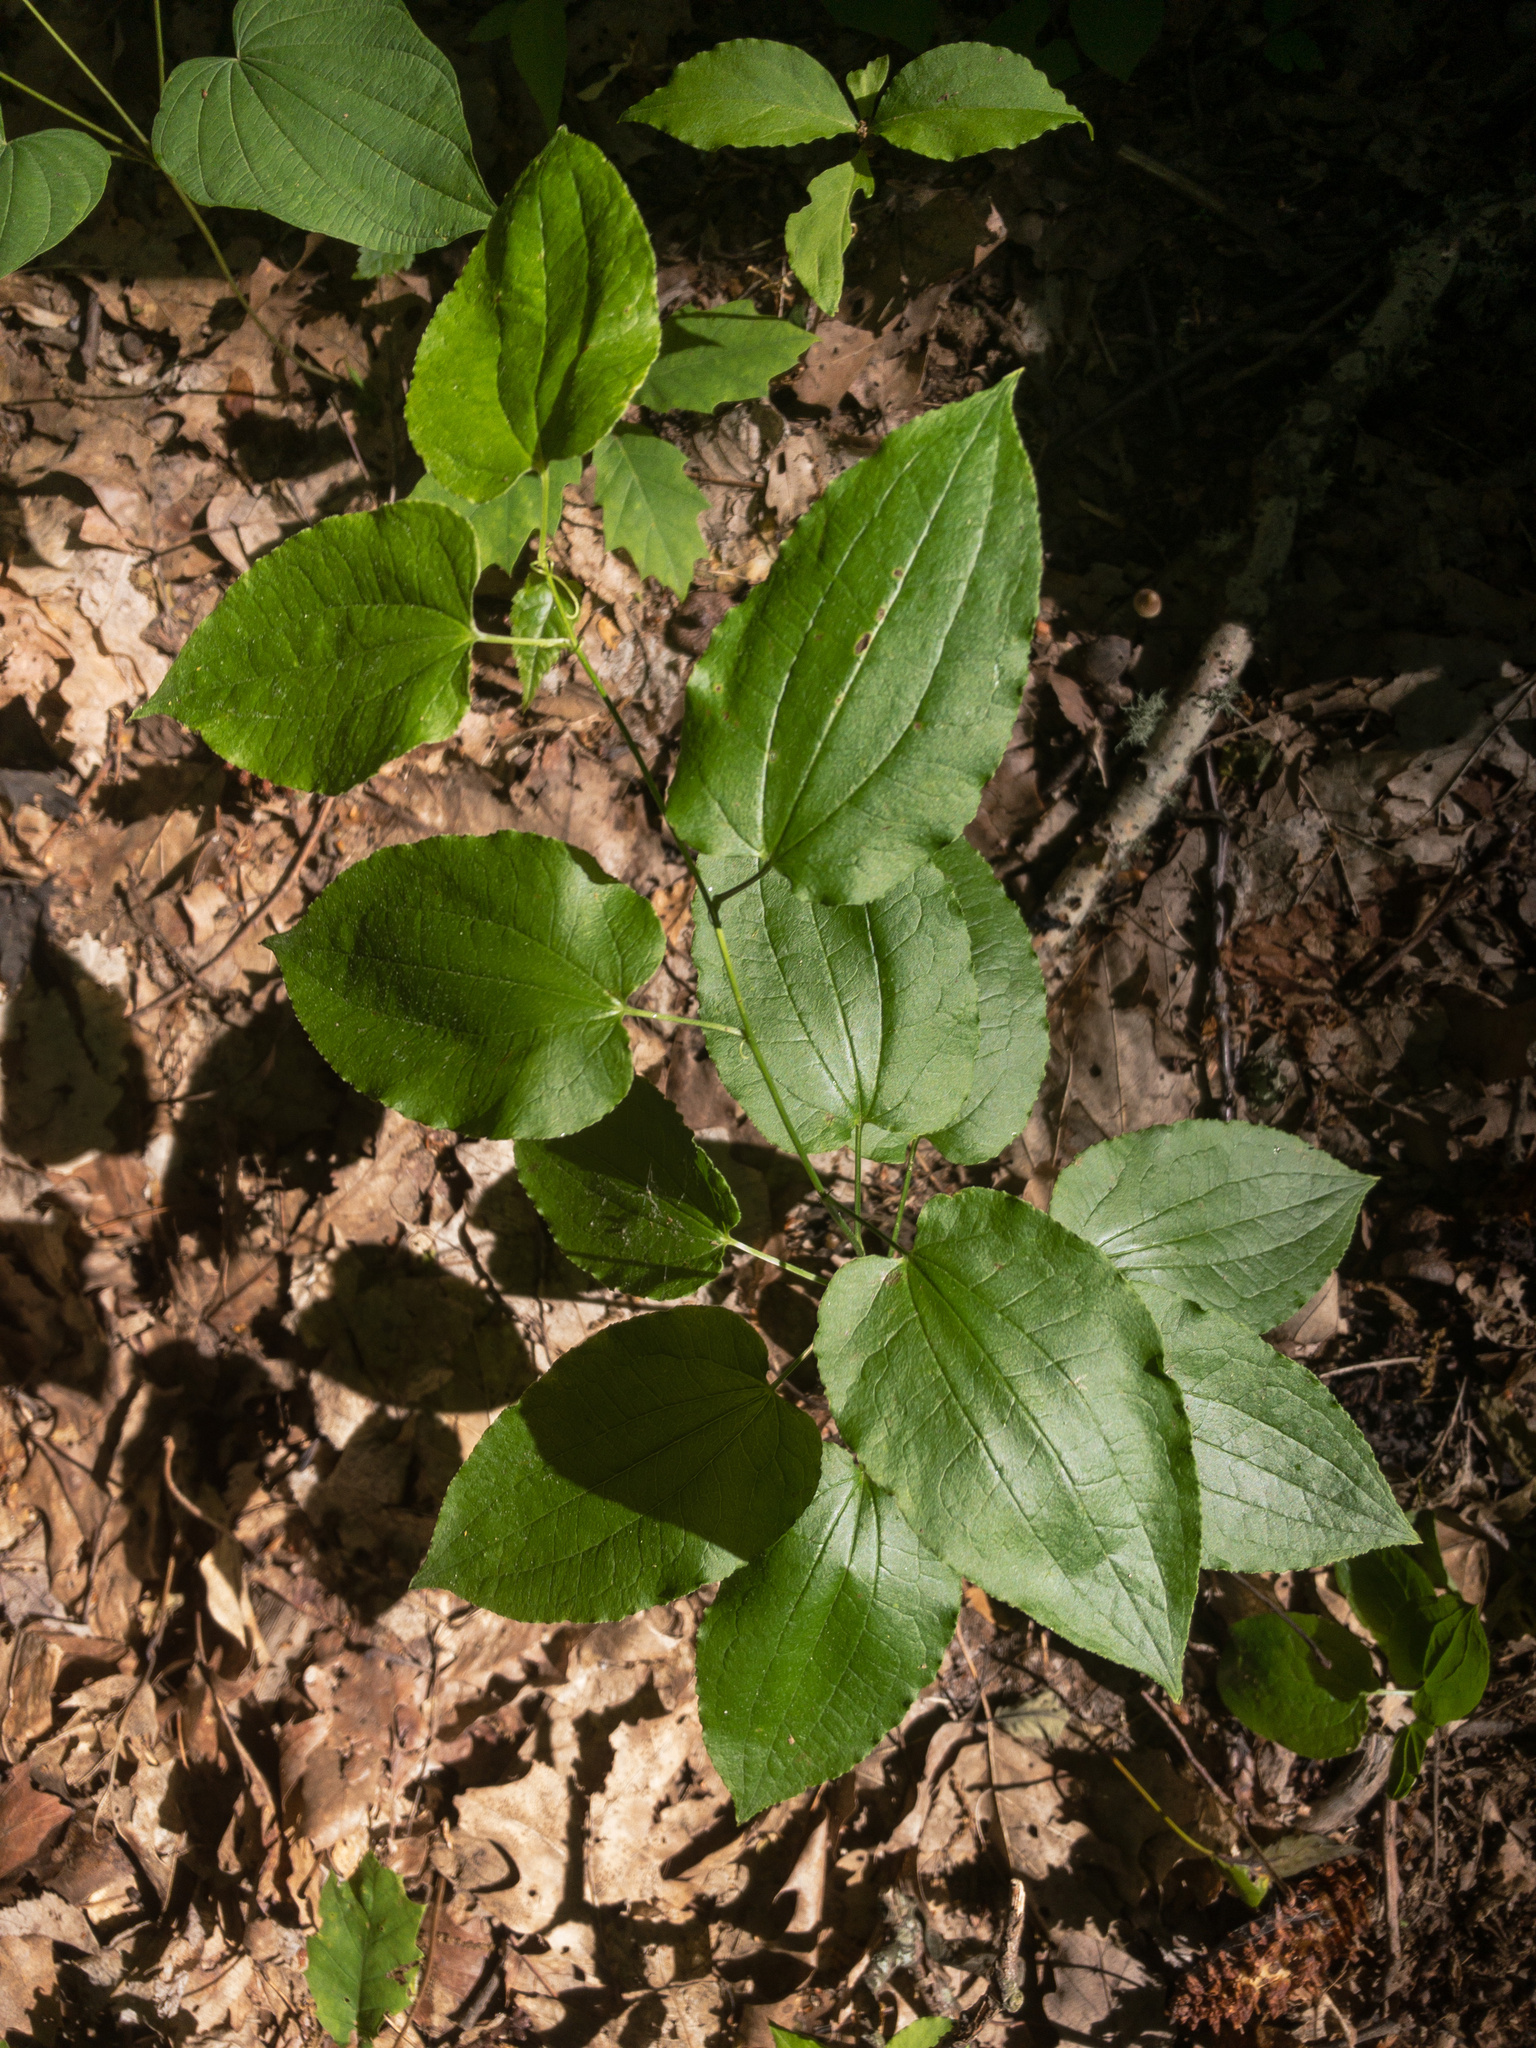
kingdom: Plantae
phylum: Tracheophyta
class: Liliopsida
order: Liliales
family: Smilacaceae
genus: Smilax
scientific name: Smilax pulverulenta
